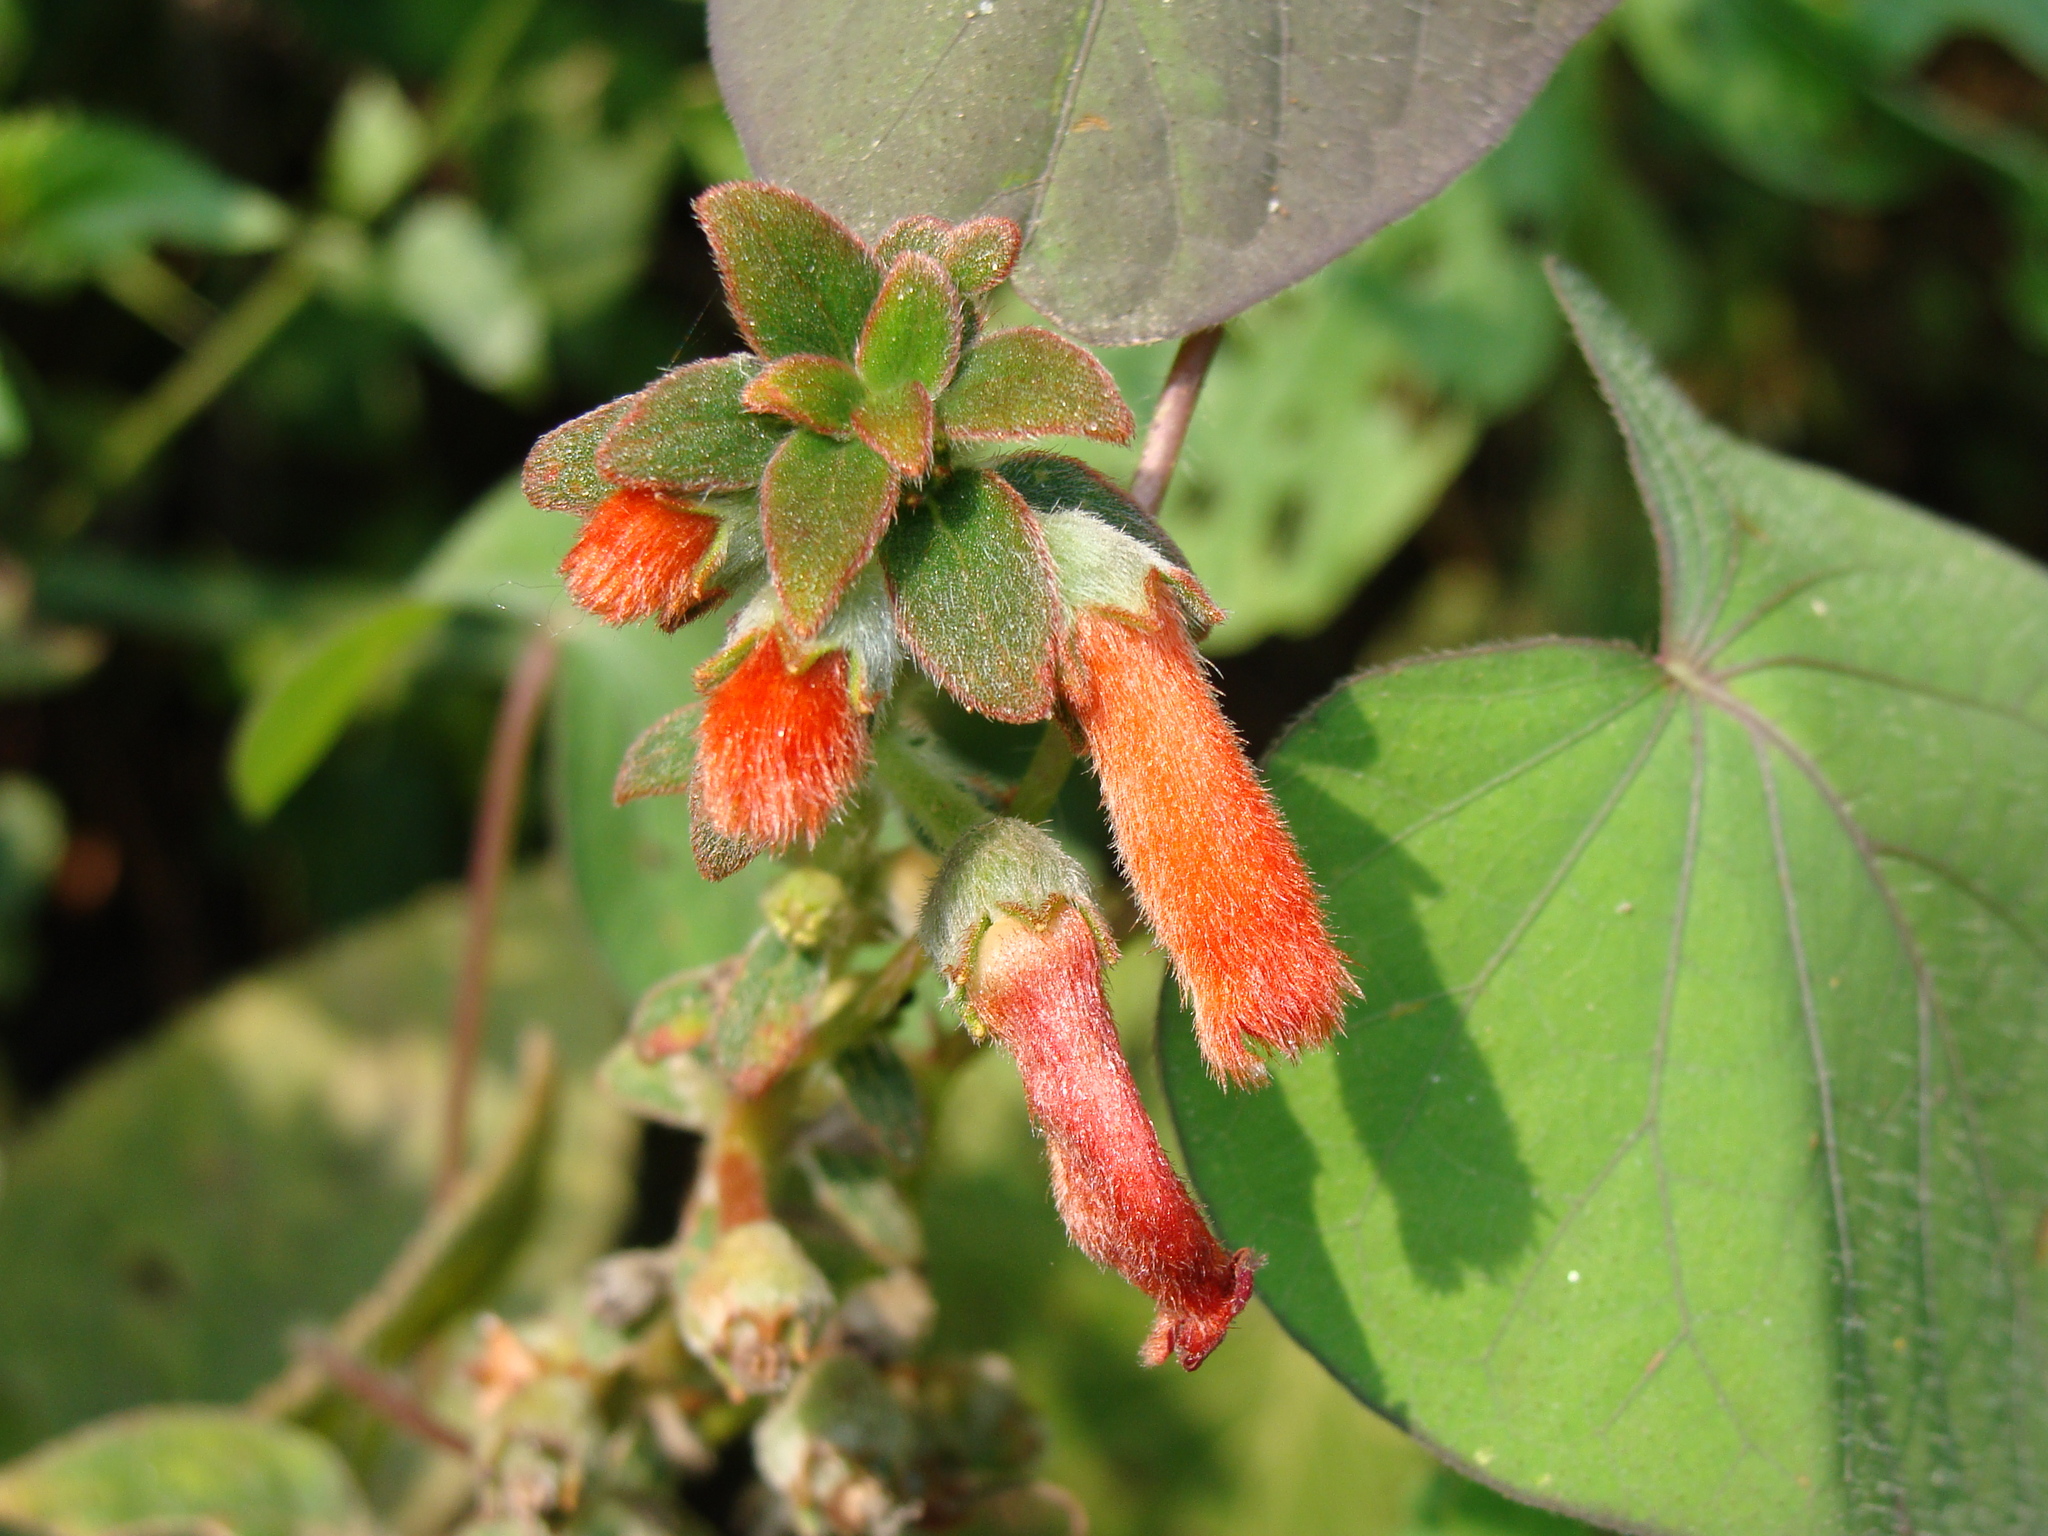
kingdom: Plantae
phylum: Tracheophyta
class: Magnoliopsida
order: Lamiales
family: Gesneriaceae
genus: Kohleria
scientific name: Kohleria spicata
